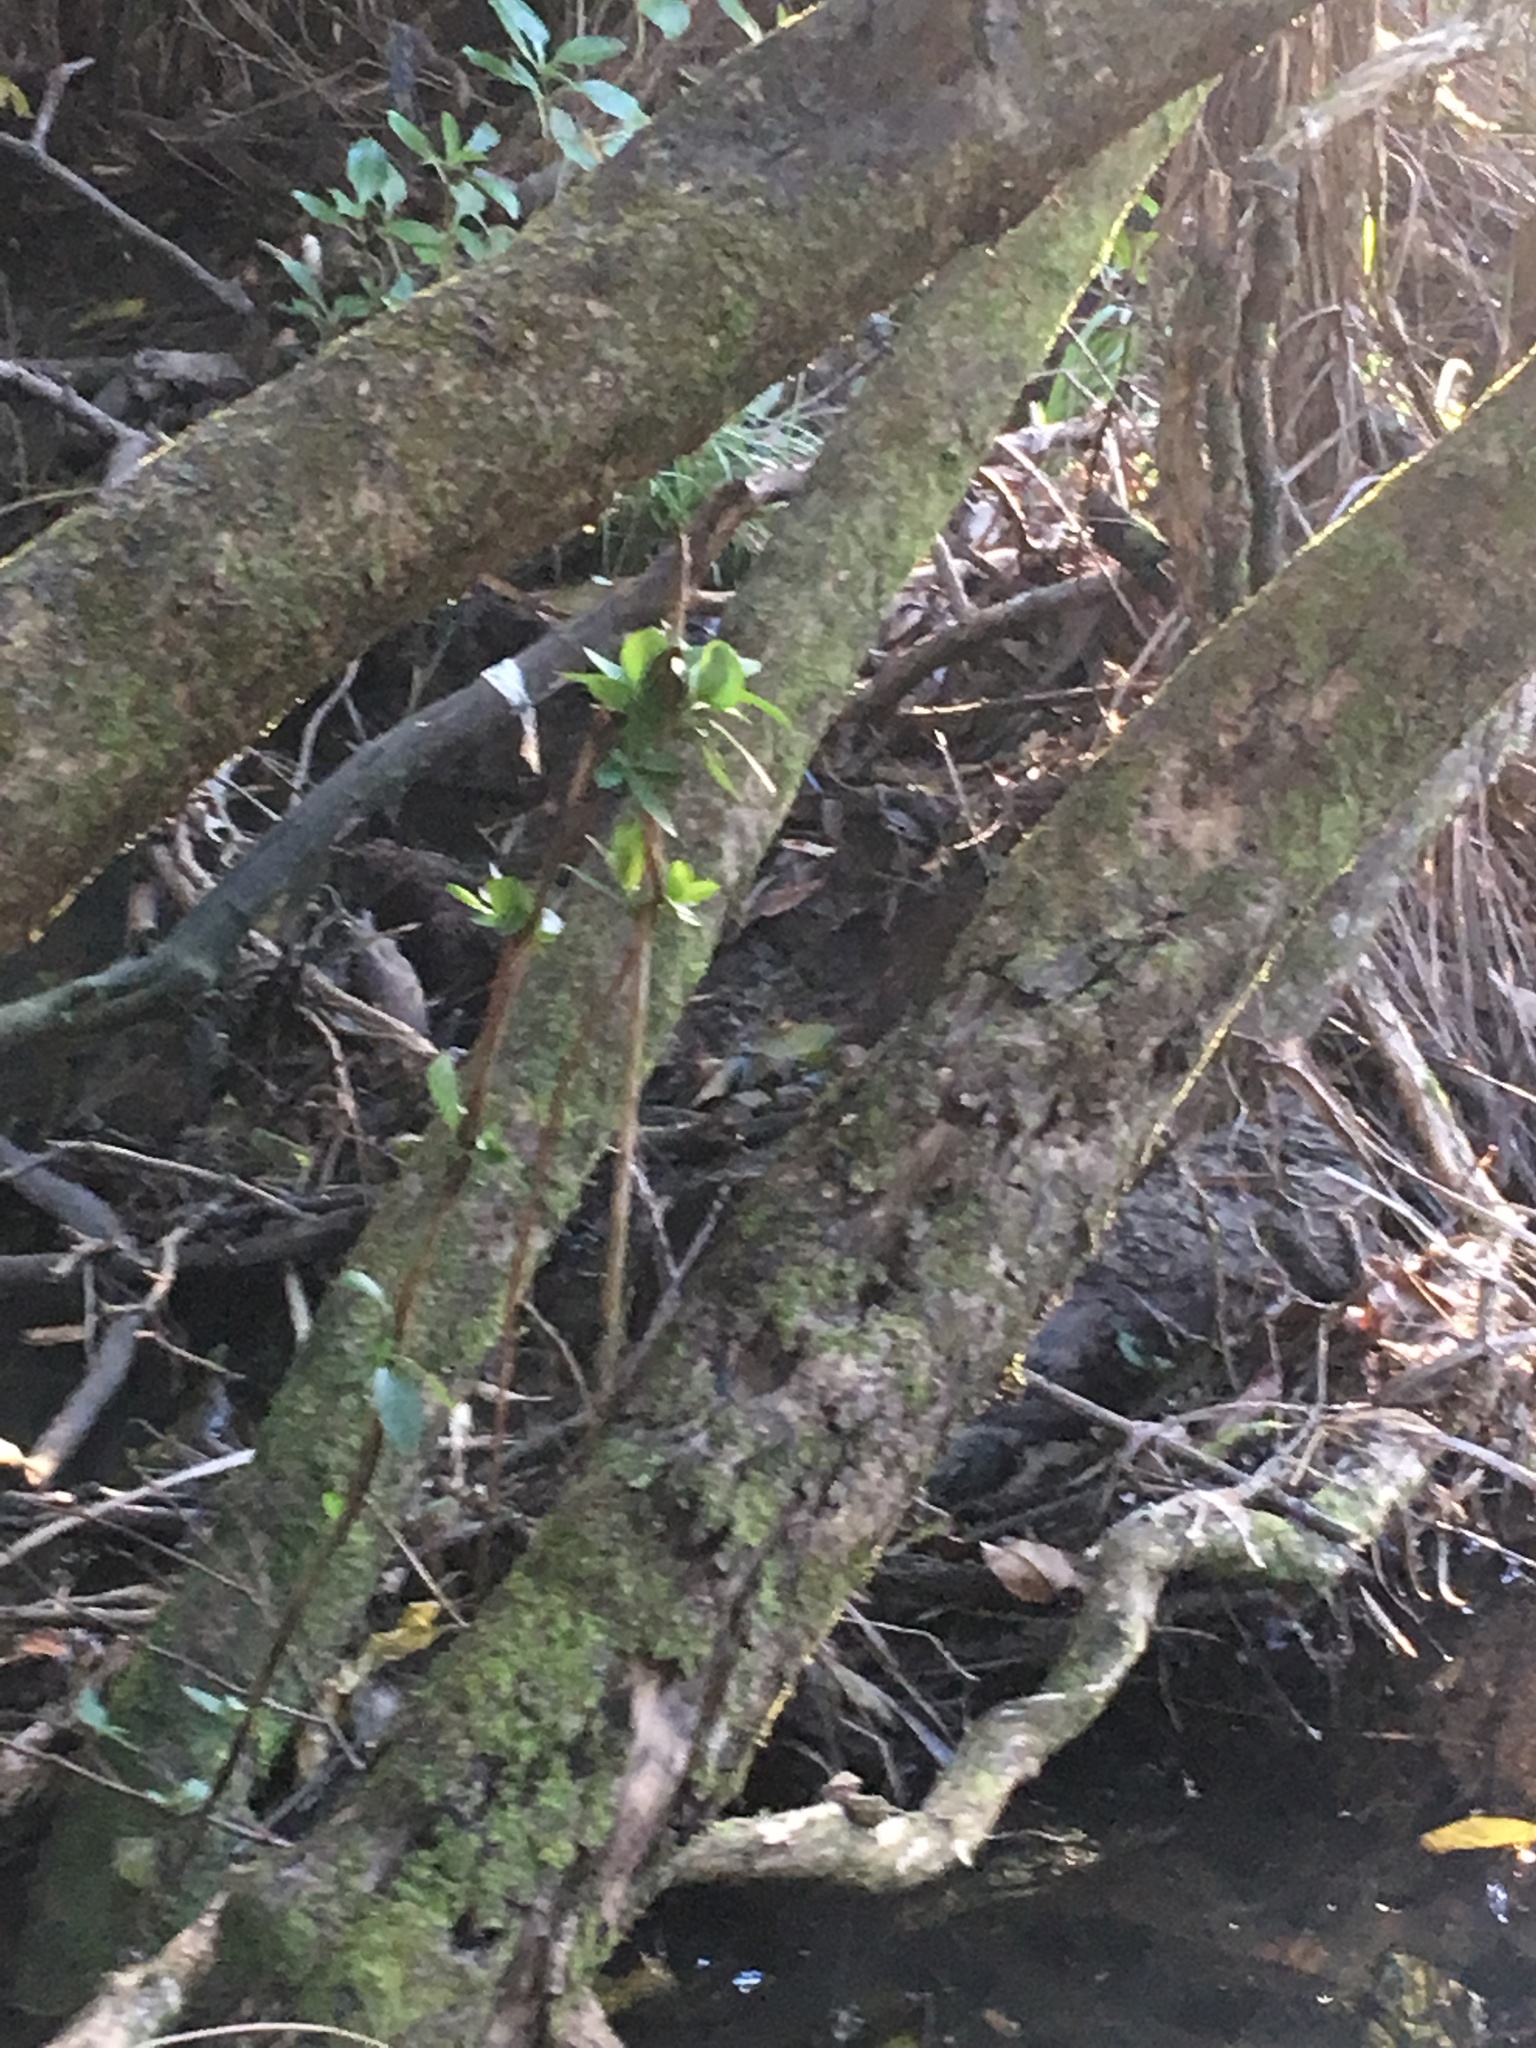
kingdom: Plantae
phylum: Tracheophyta
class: Magnoliopsida
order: Dipsacales
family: Caprifoliaceae
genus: Lonicera
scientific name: Lonicera japonica
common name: Japanese honeysuckle
